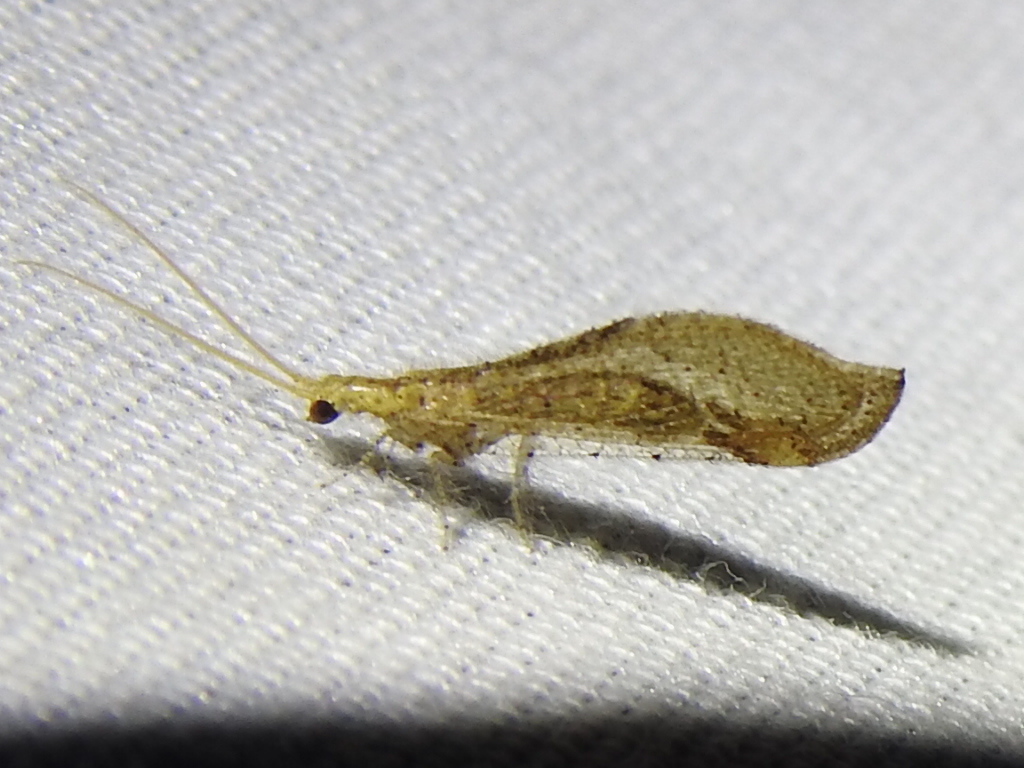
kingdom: Animalia
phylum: Arthropoda
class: Insecta
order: Neuroptera
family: Berothidae
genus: Lomamyia
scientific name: Lomamyia squamosa
